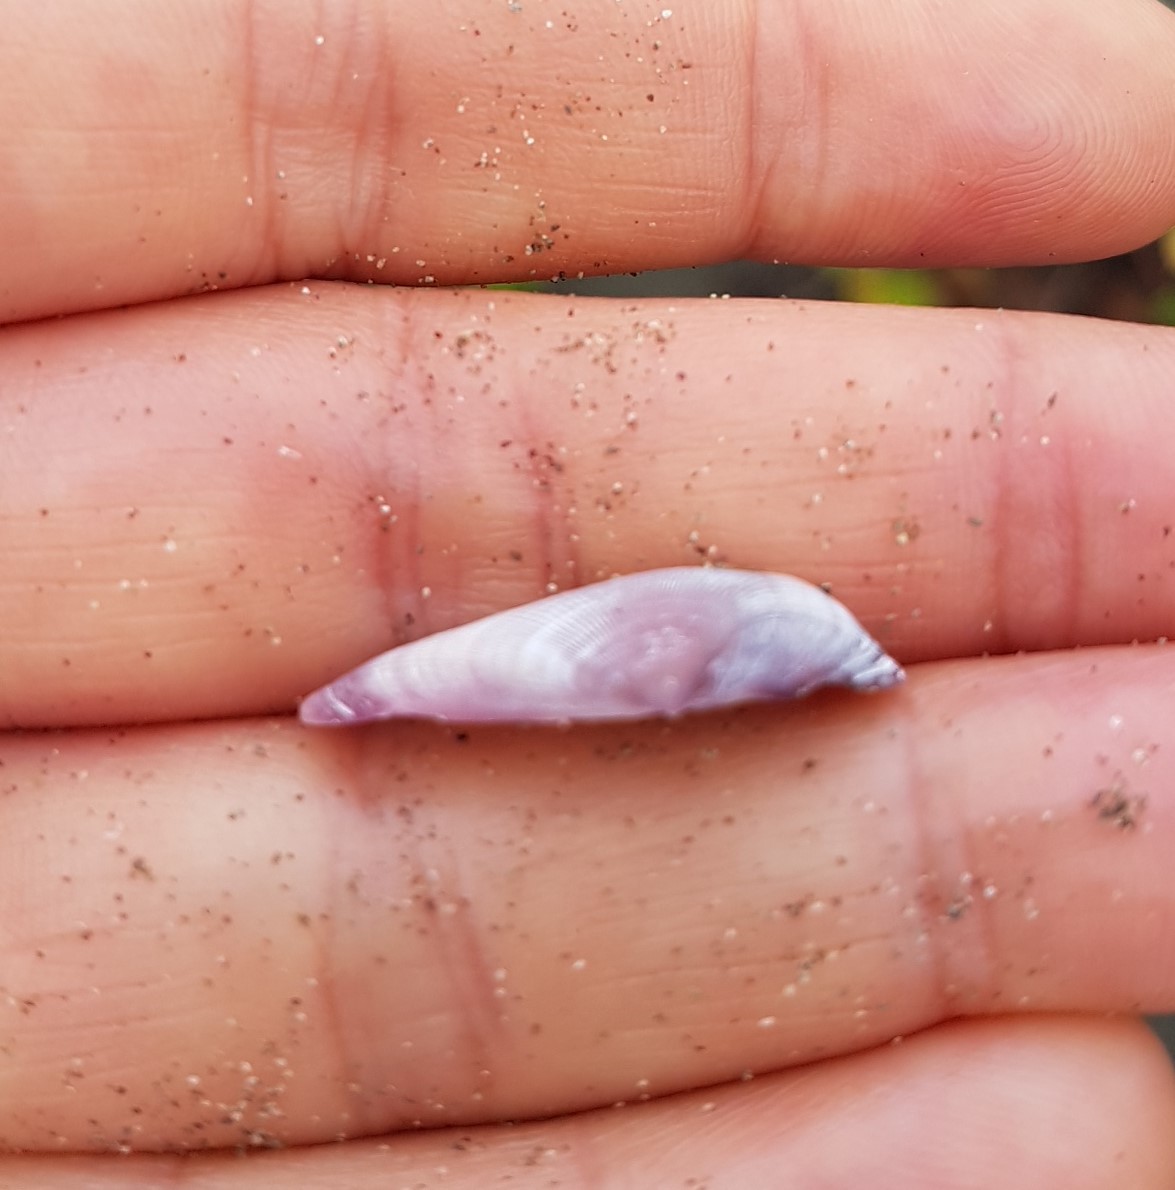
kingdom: Animalia
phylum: Mollusca
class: Bivalvia
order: Cardiida
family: Donacidae
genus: Donax
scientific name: Donax denticulatus
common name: Common caribbean coquina
